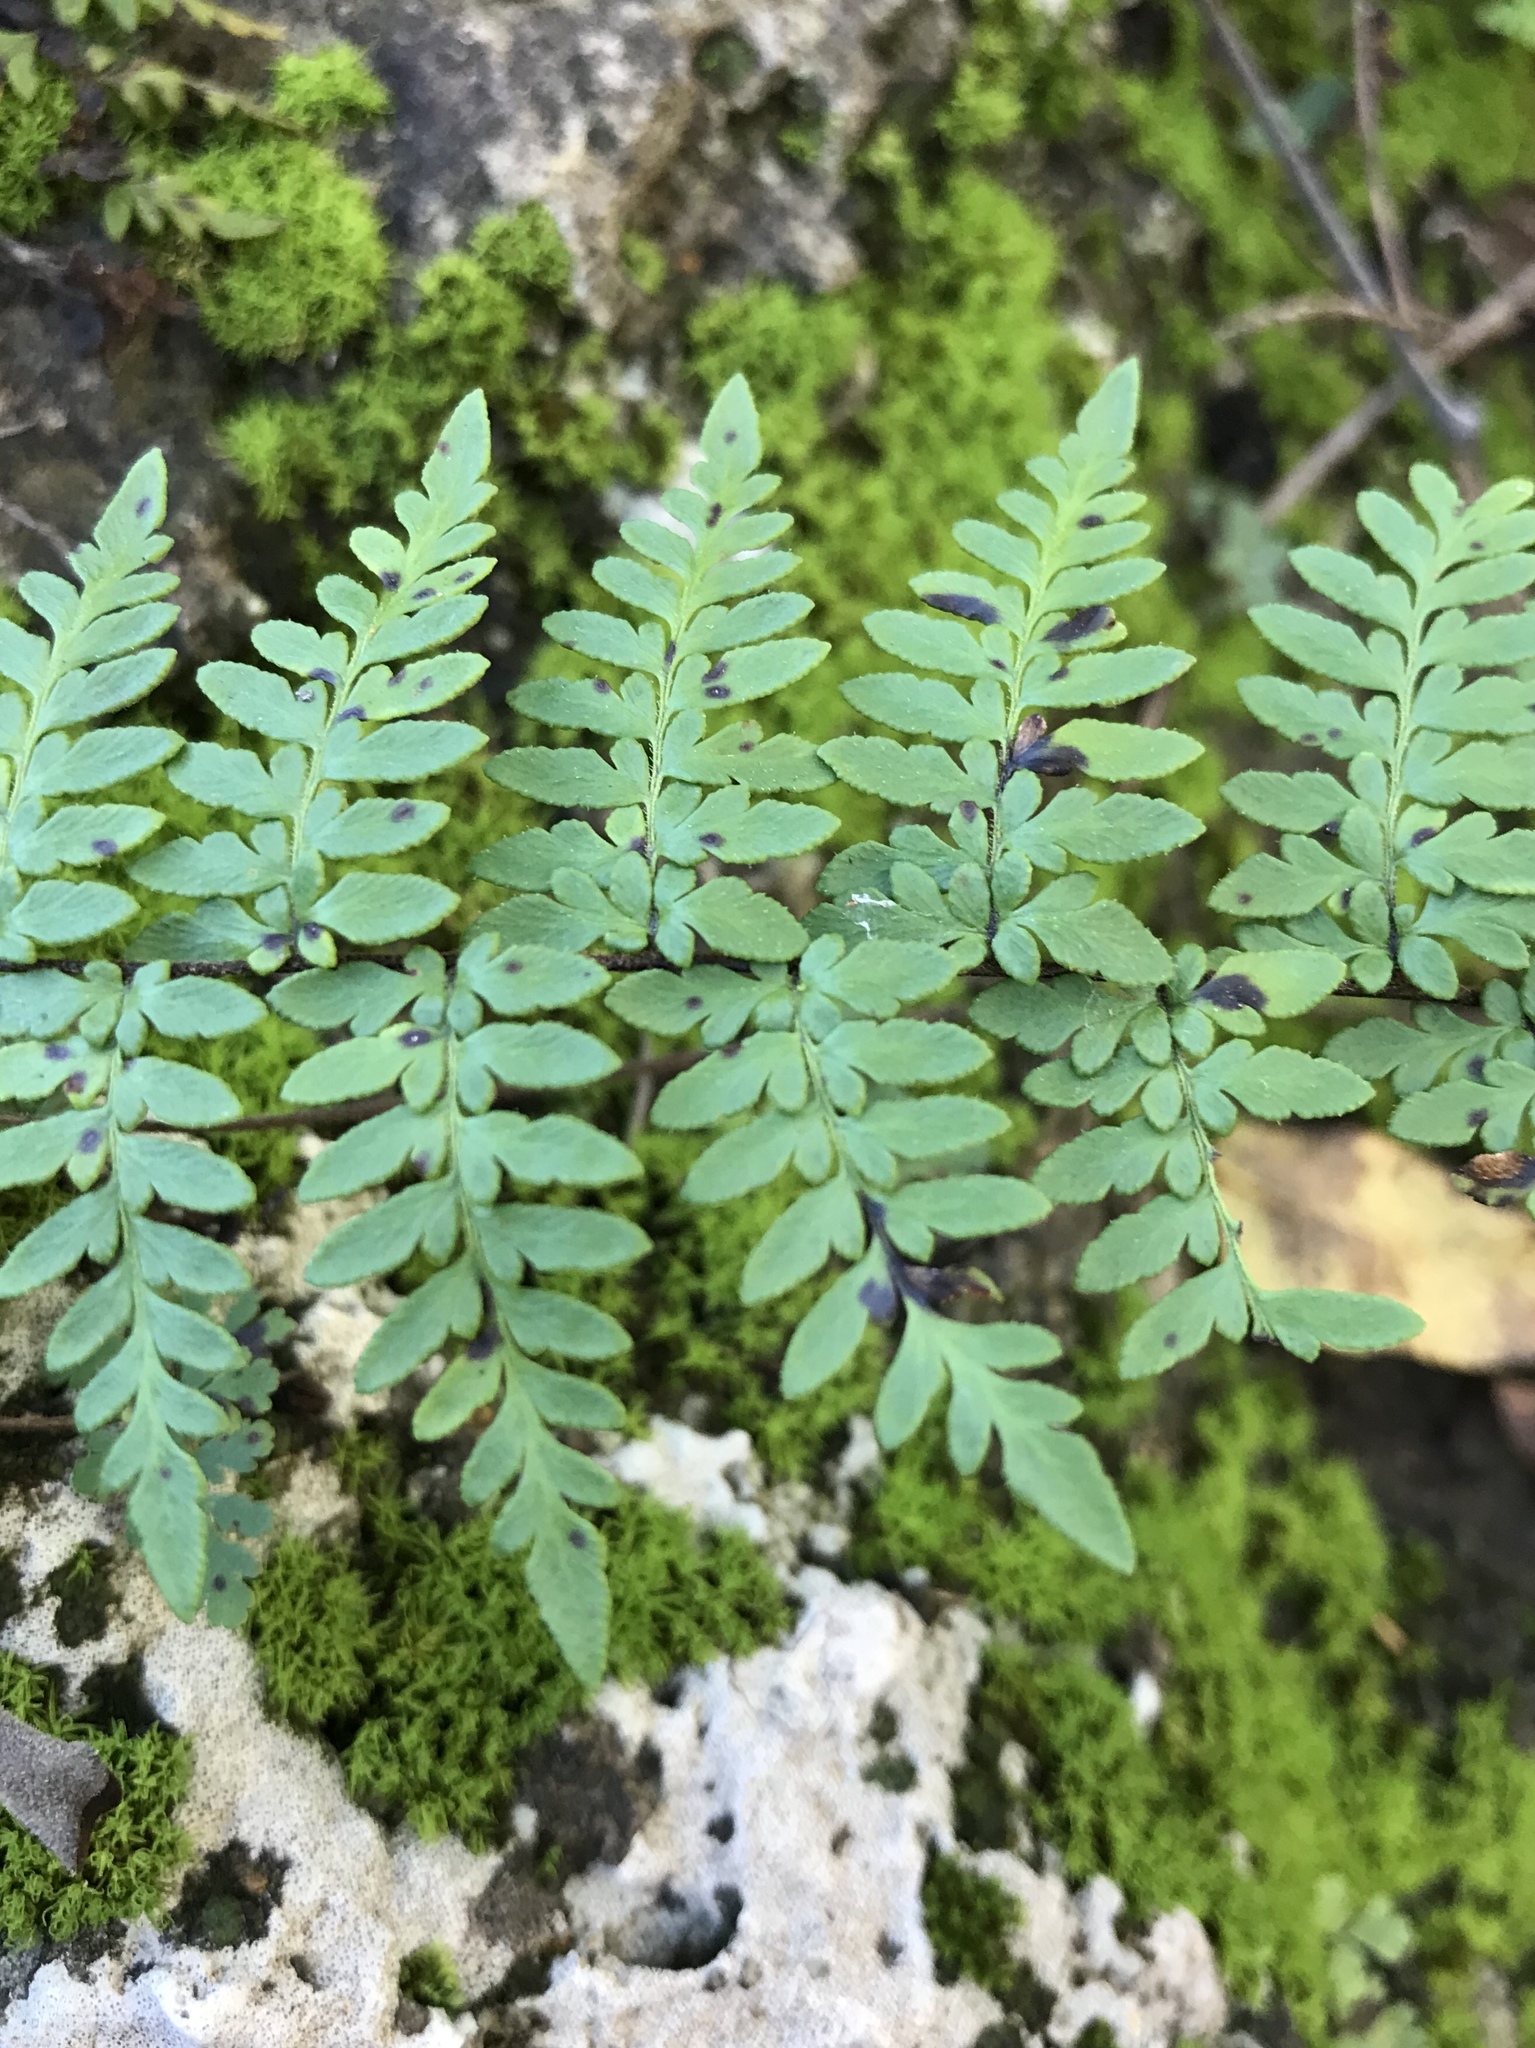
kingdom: Plantae
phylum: Tracheophyta
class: Polypodiopsida
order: Polypodiales
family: Pteridaceae
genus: Myriopteris
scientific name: Myriopteris alabamensis
